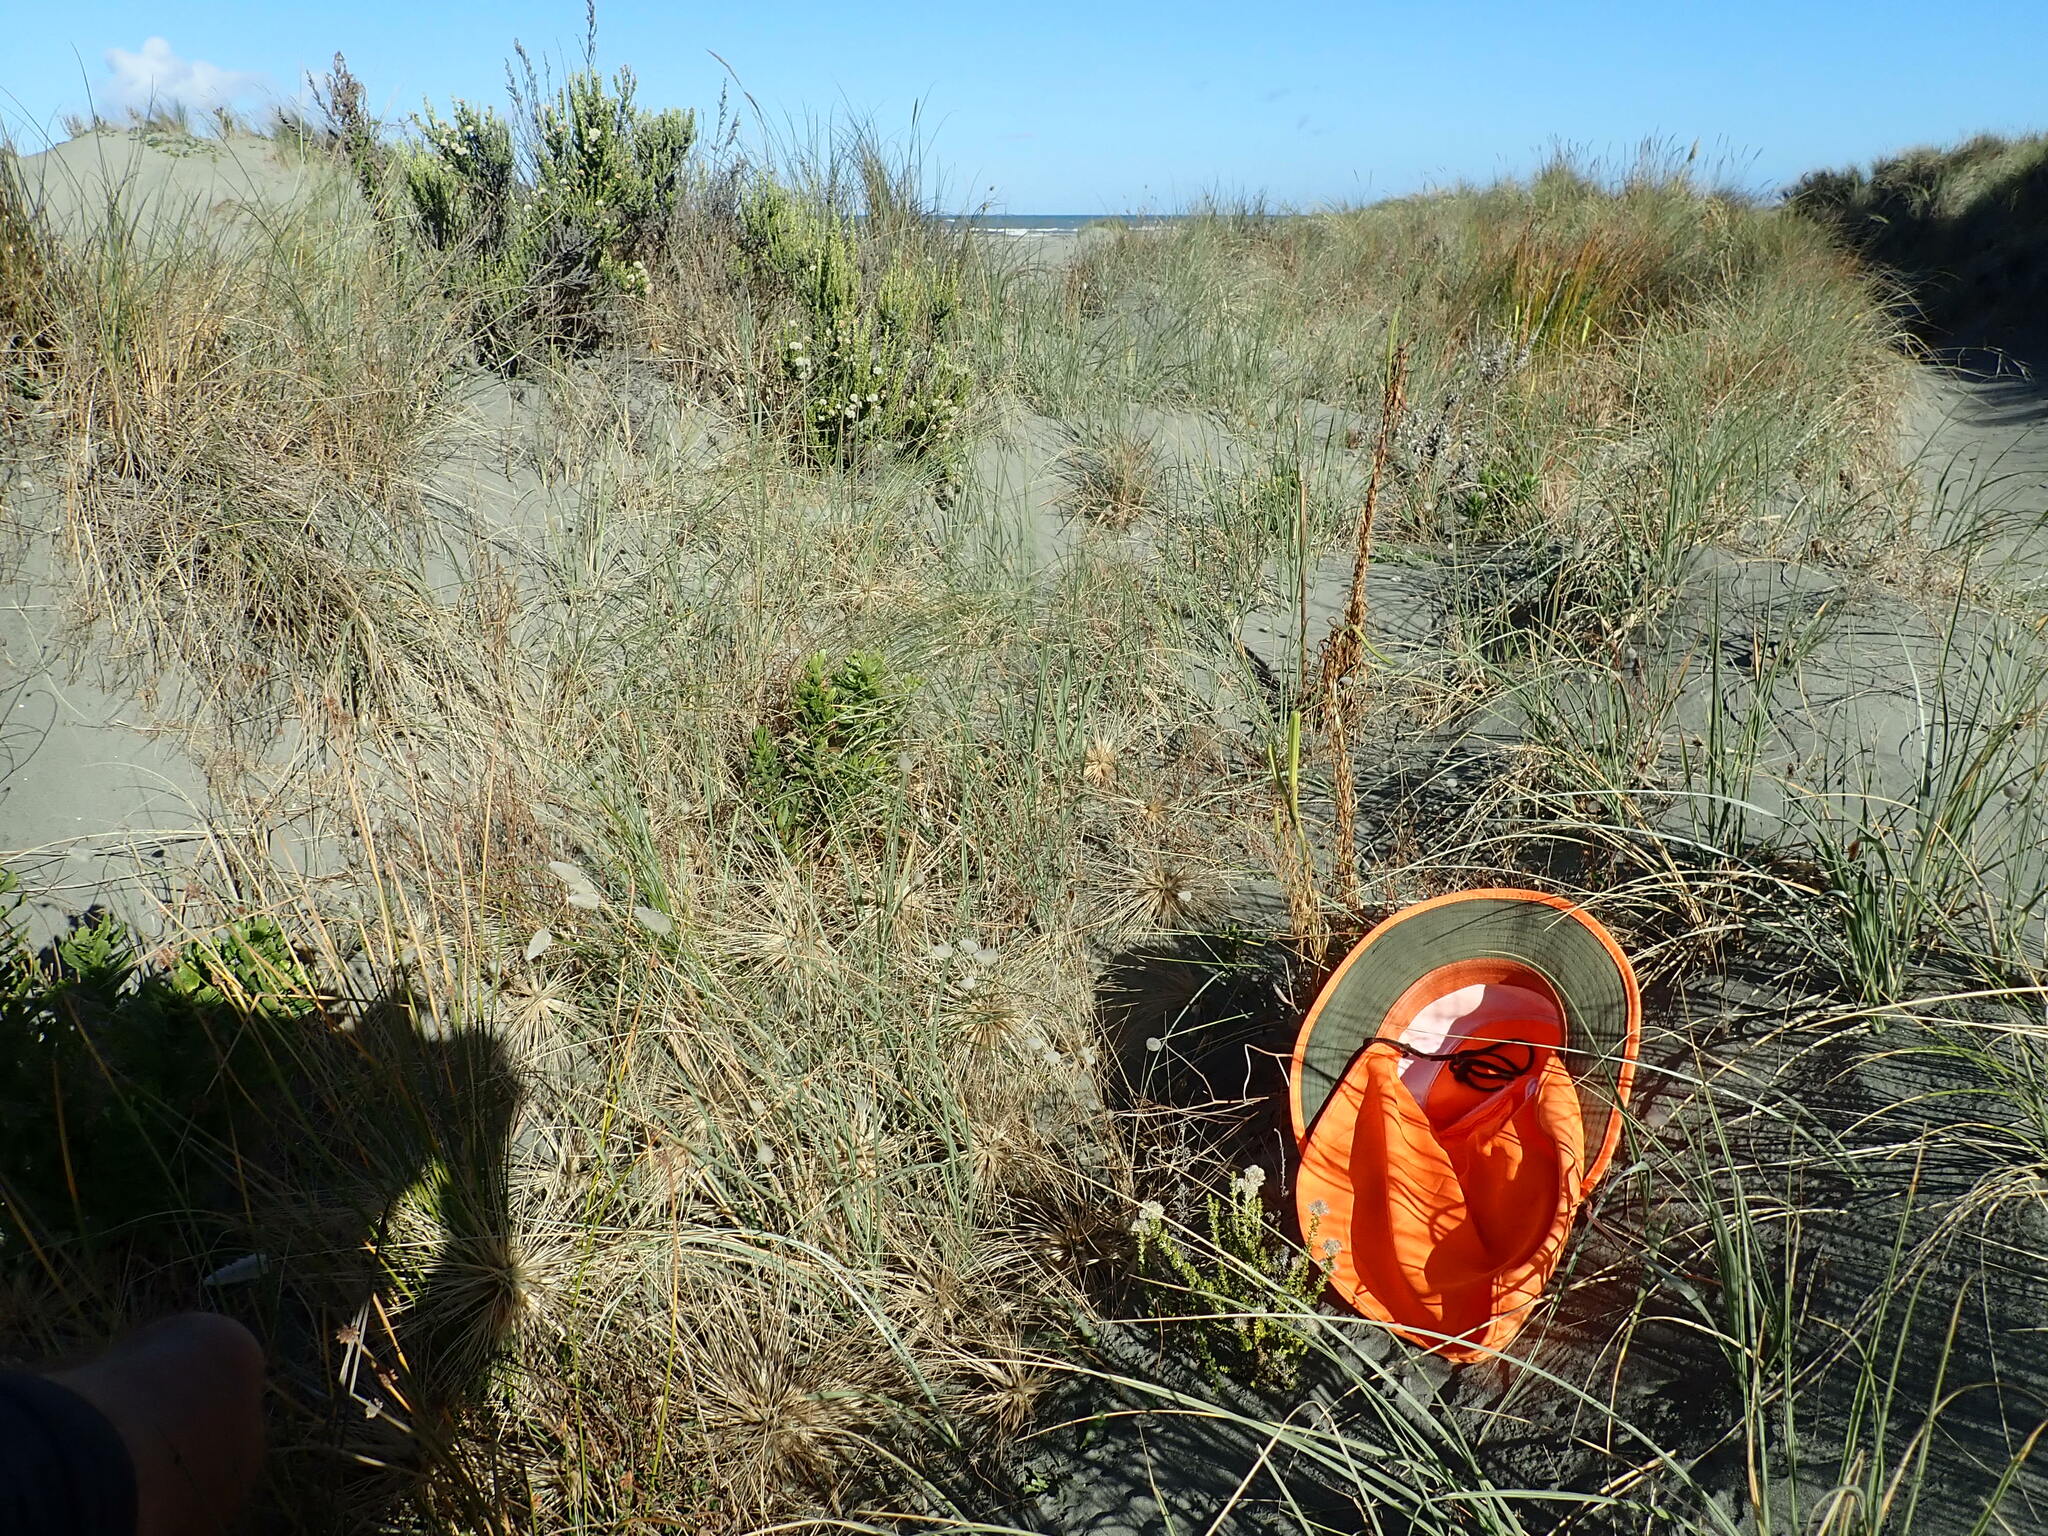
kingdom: Plantae
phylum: Tracheophyta
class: Magnoliopsida
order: Asterales
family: Asteraceae
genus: Ozothamnus
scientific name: Ozothamnus leptophyllus
